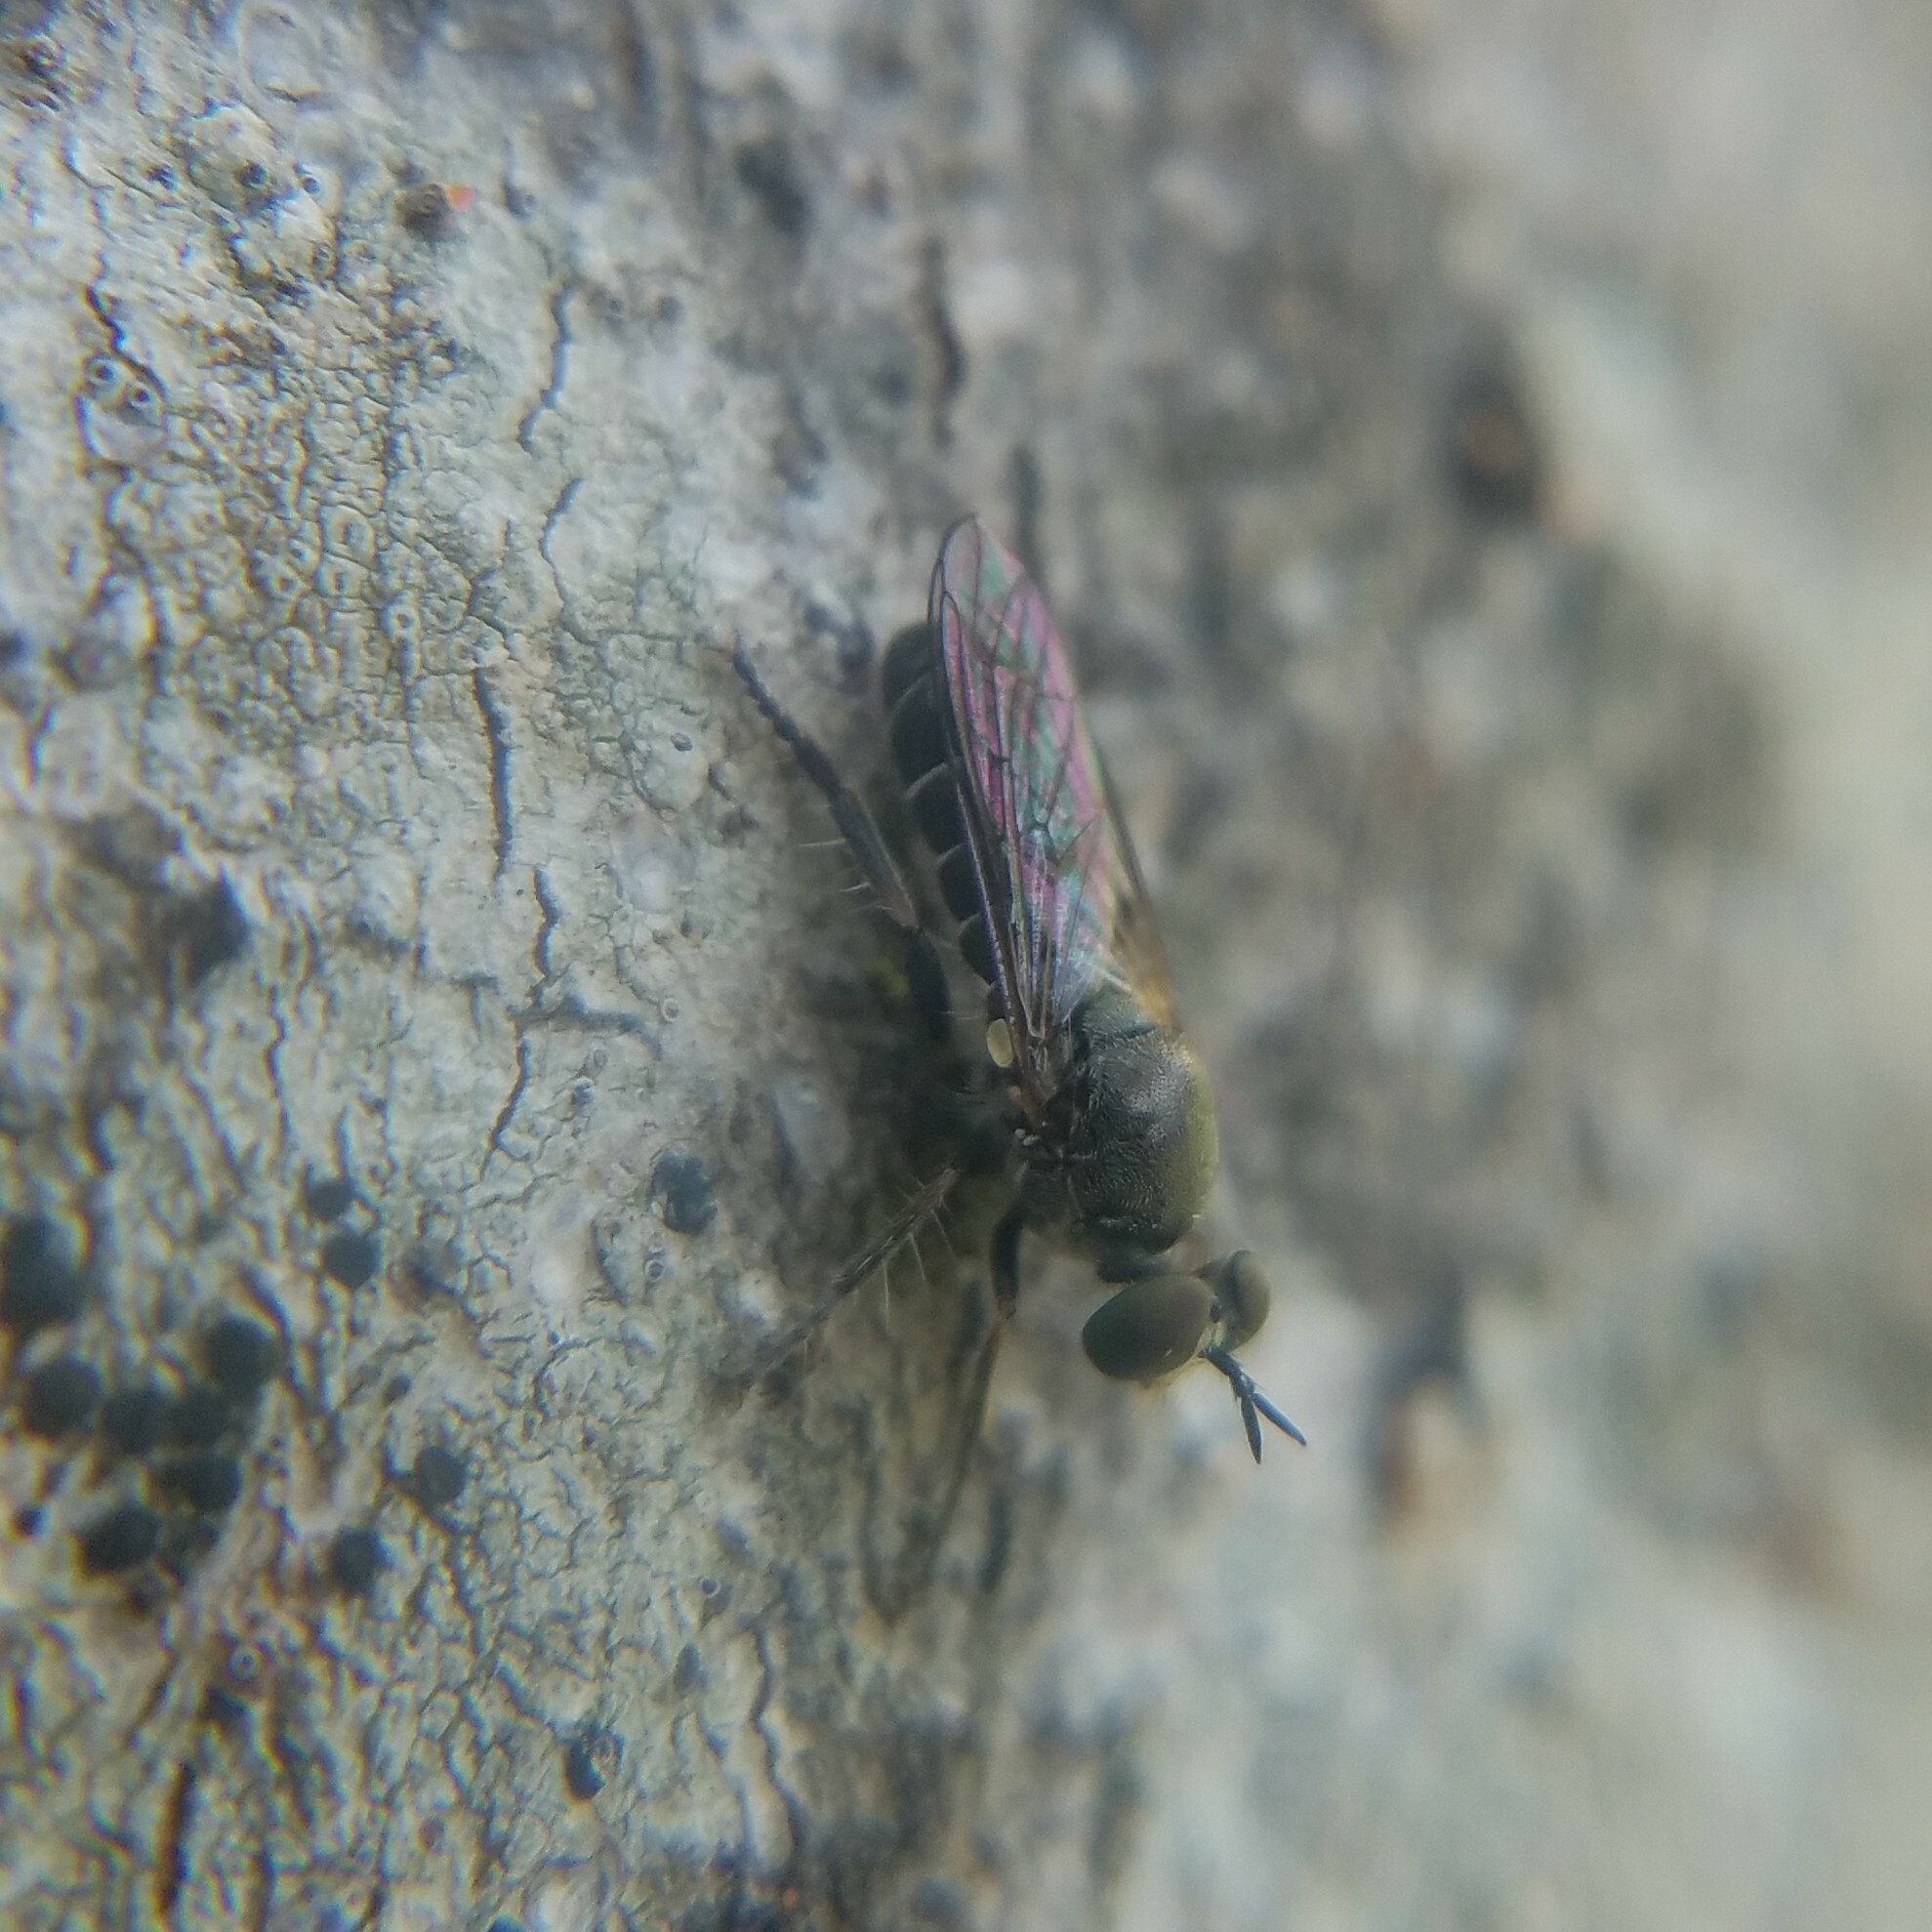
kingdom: Animalia
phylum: Arthropoda
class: Insecta
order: Diptera
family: Asilidae
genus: Atomosia
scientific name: Atomosia puella
